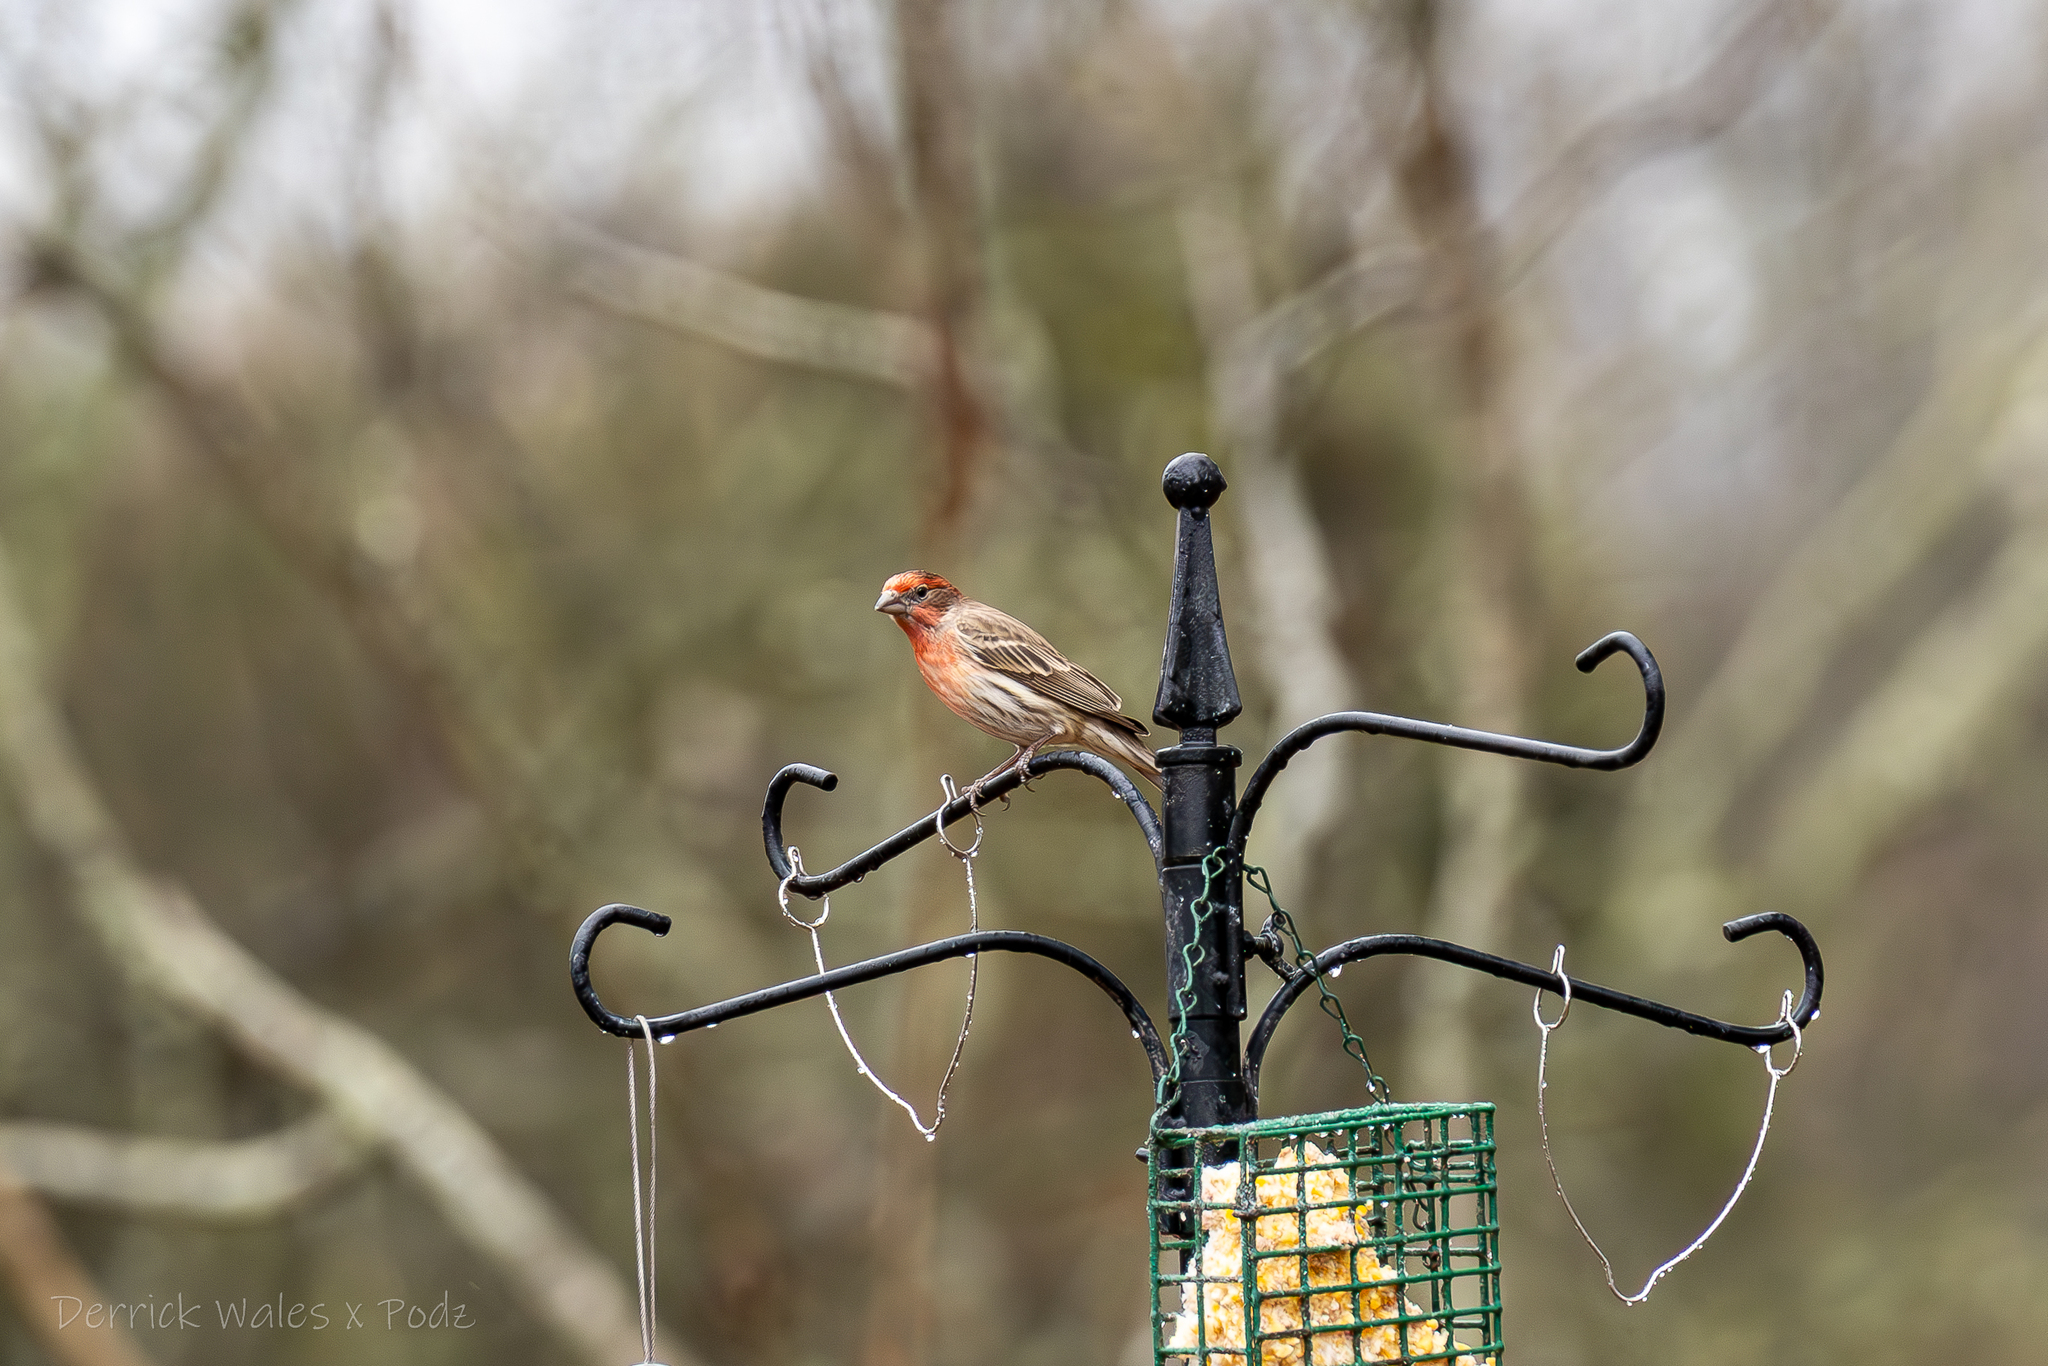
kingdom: Animalia
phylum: Chordata
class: Aves
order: Passeriformes
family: Fringillidae
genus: Haemorhous
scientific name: Haemorhous mexicanus
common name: House finch
